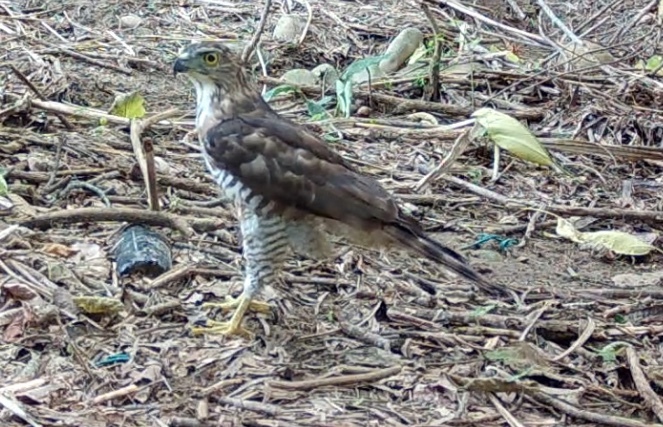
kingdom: Animalia
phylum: Chordata
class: Aves
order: Accipitriformes
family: Accipitridae
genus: Accipiter
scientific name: Accipiter trivirgatus
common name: Crested goshawk
